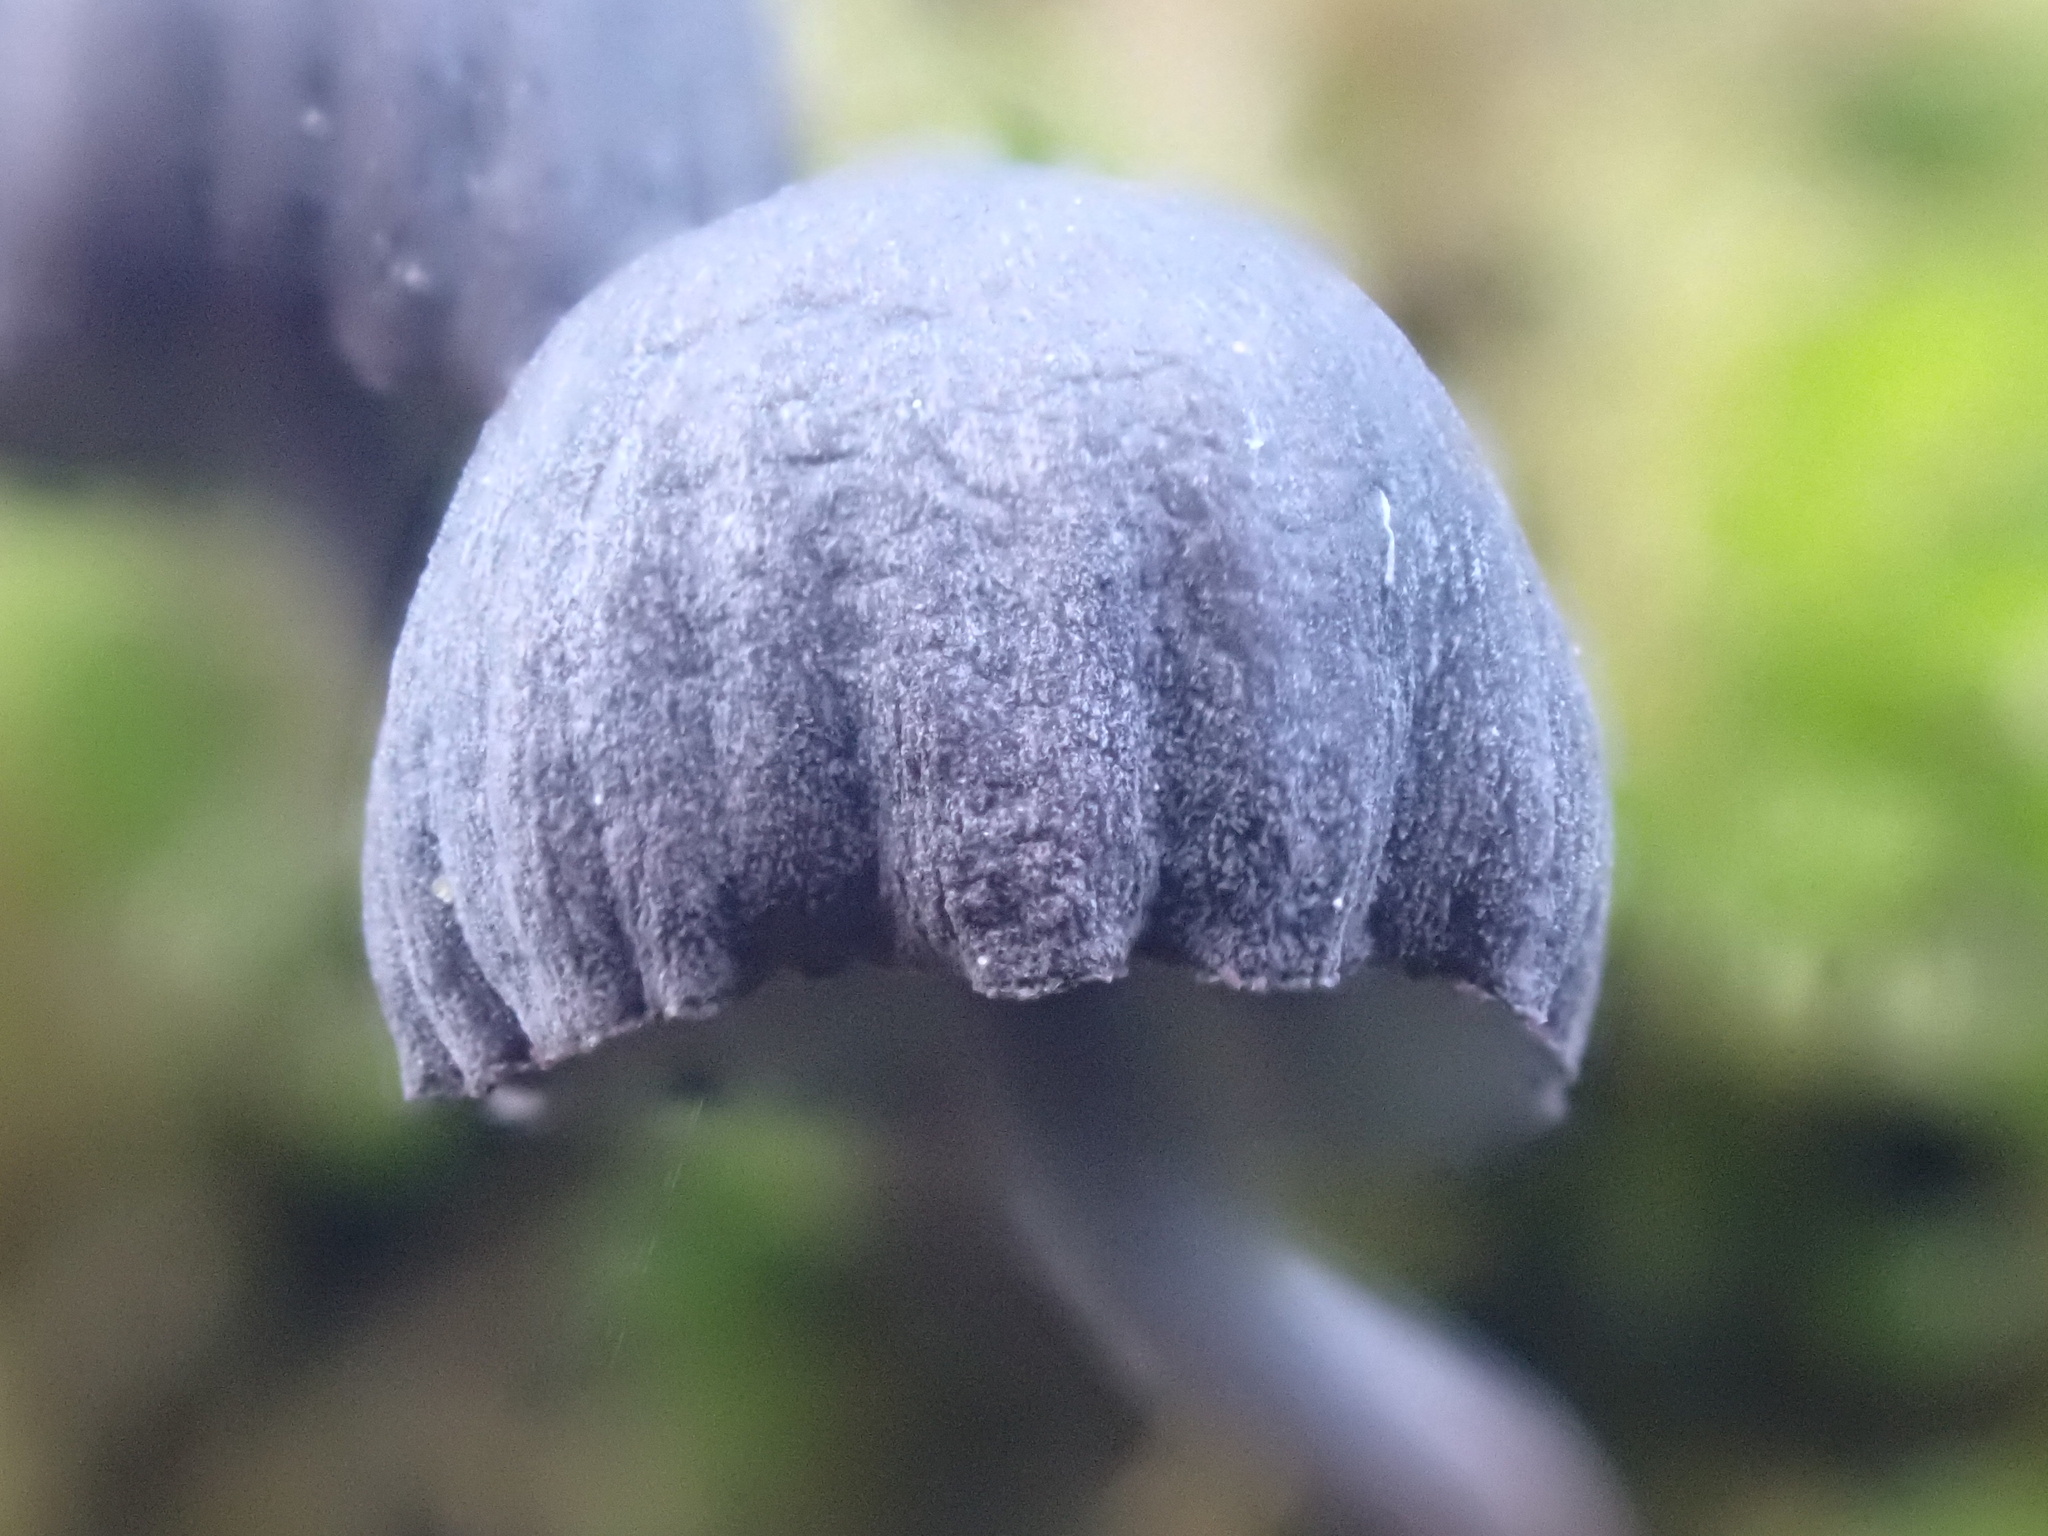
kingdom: Fungi
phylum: Basidiomycota
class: Agaricomycetes
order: Agaricales
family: Mycenaceae
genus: Mycena
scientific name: Mycena pseudocorticola
